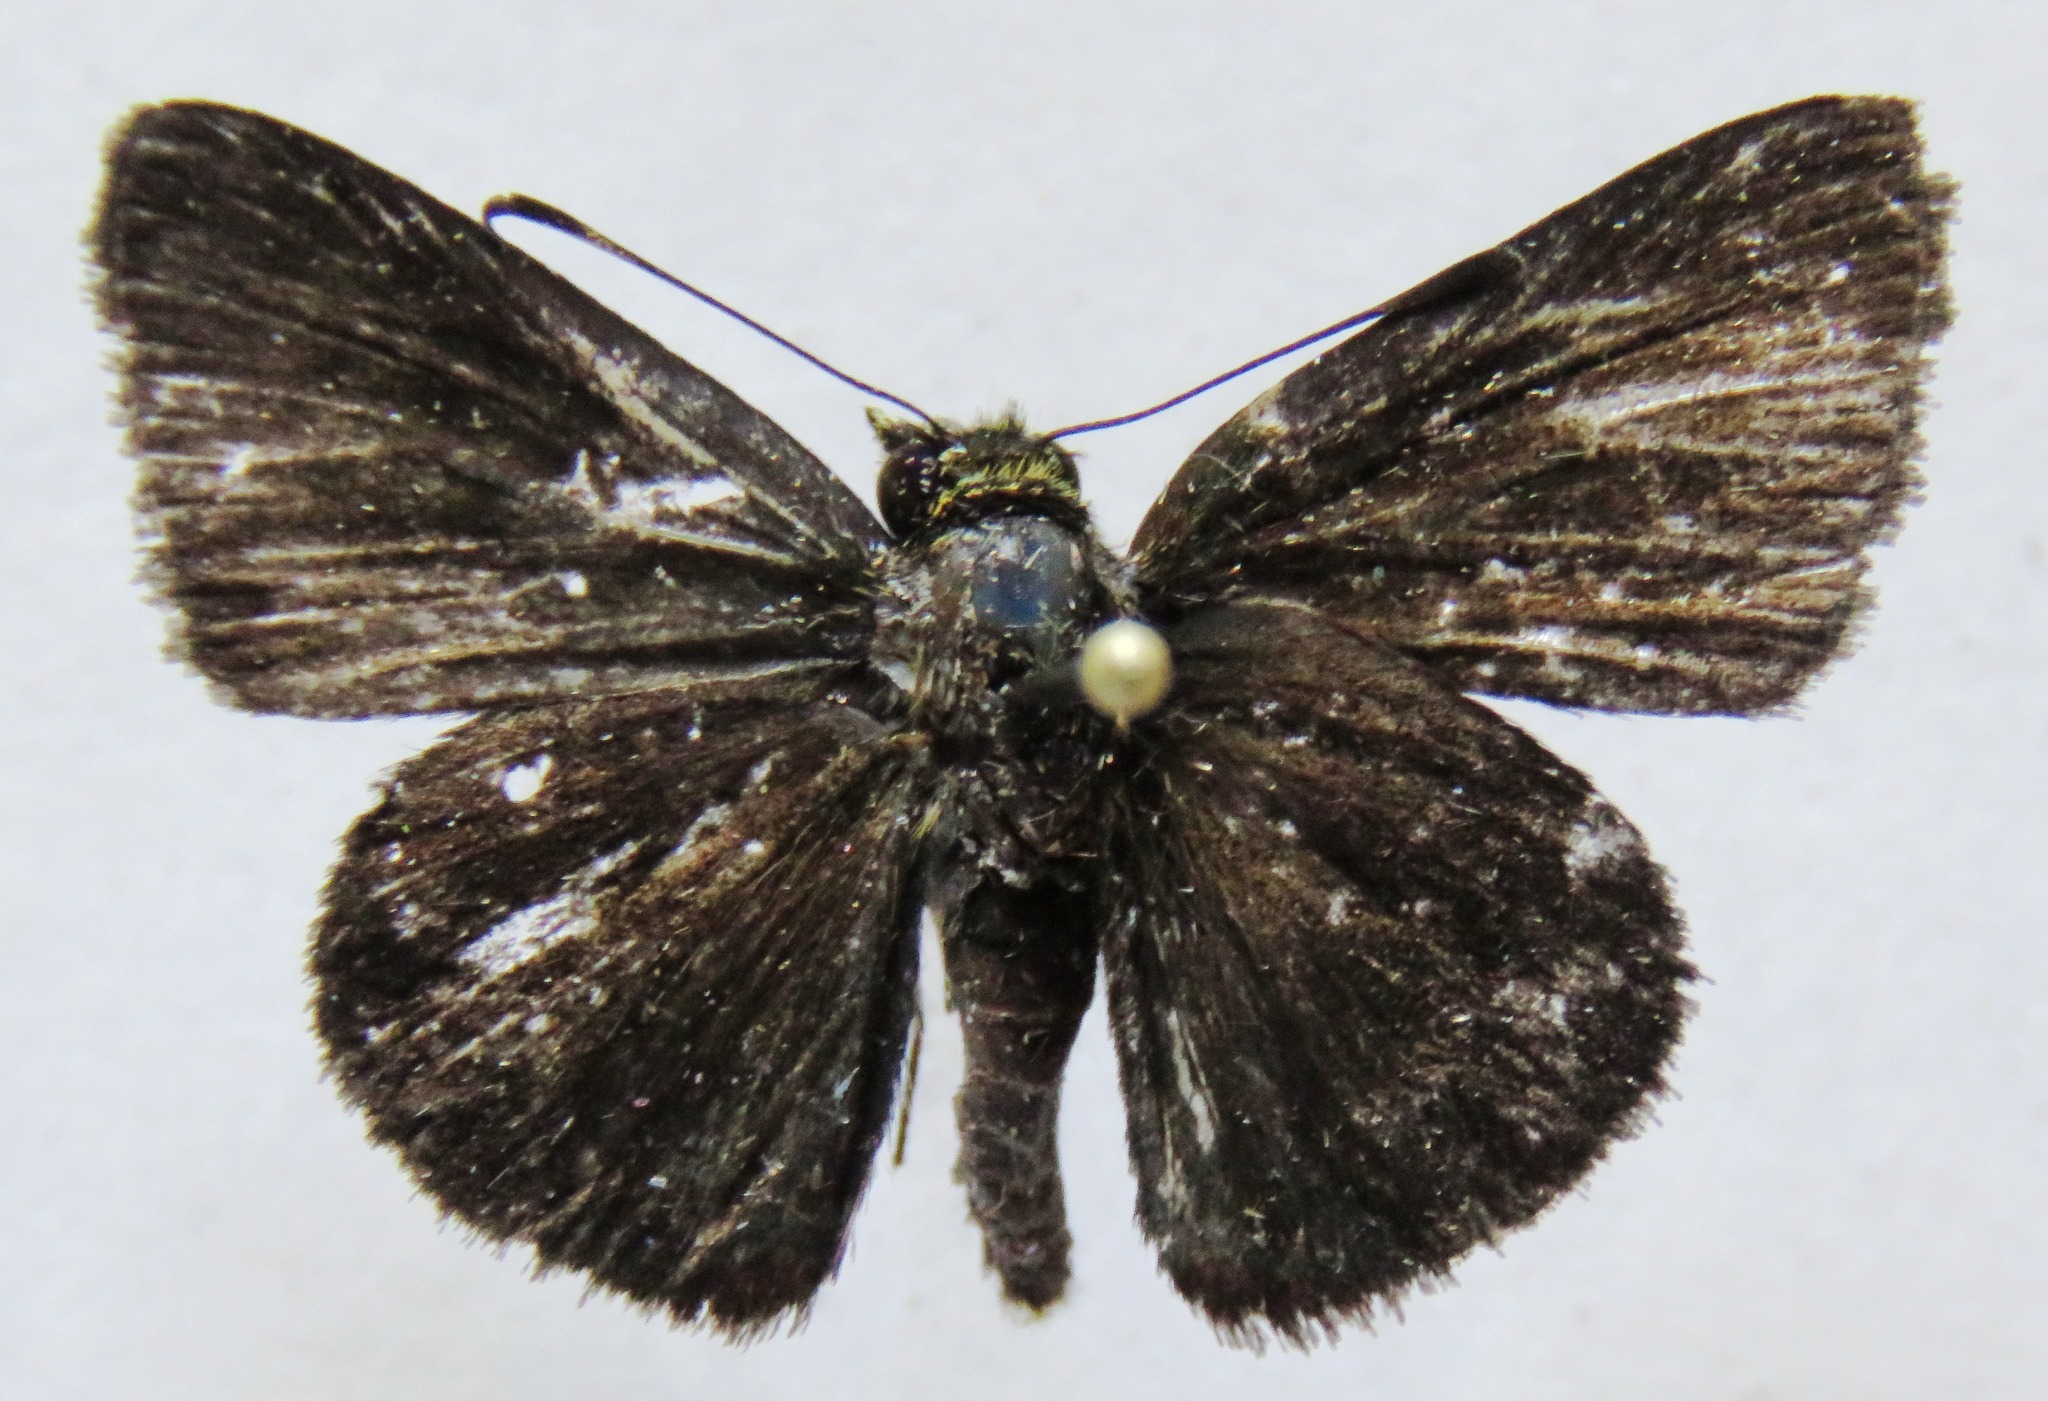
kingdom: Animalia
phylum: Arthropoda
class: Insecta
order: Lepidoptera
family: Hesperiidae
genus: Repens
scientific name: Repens
